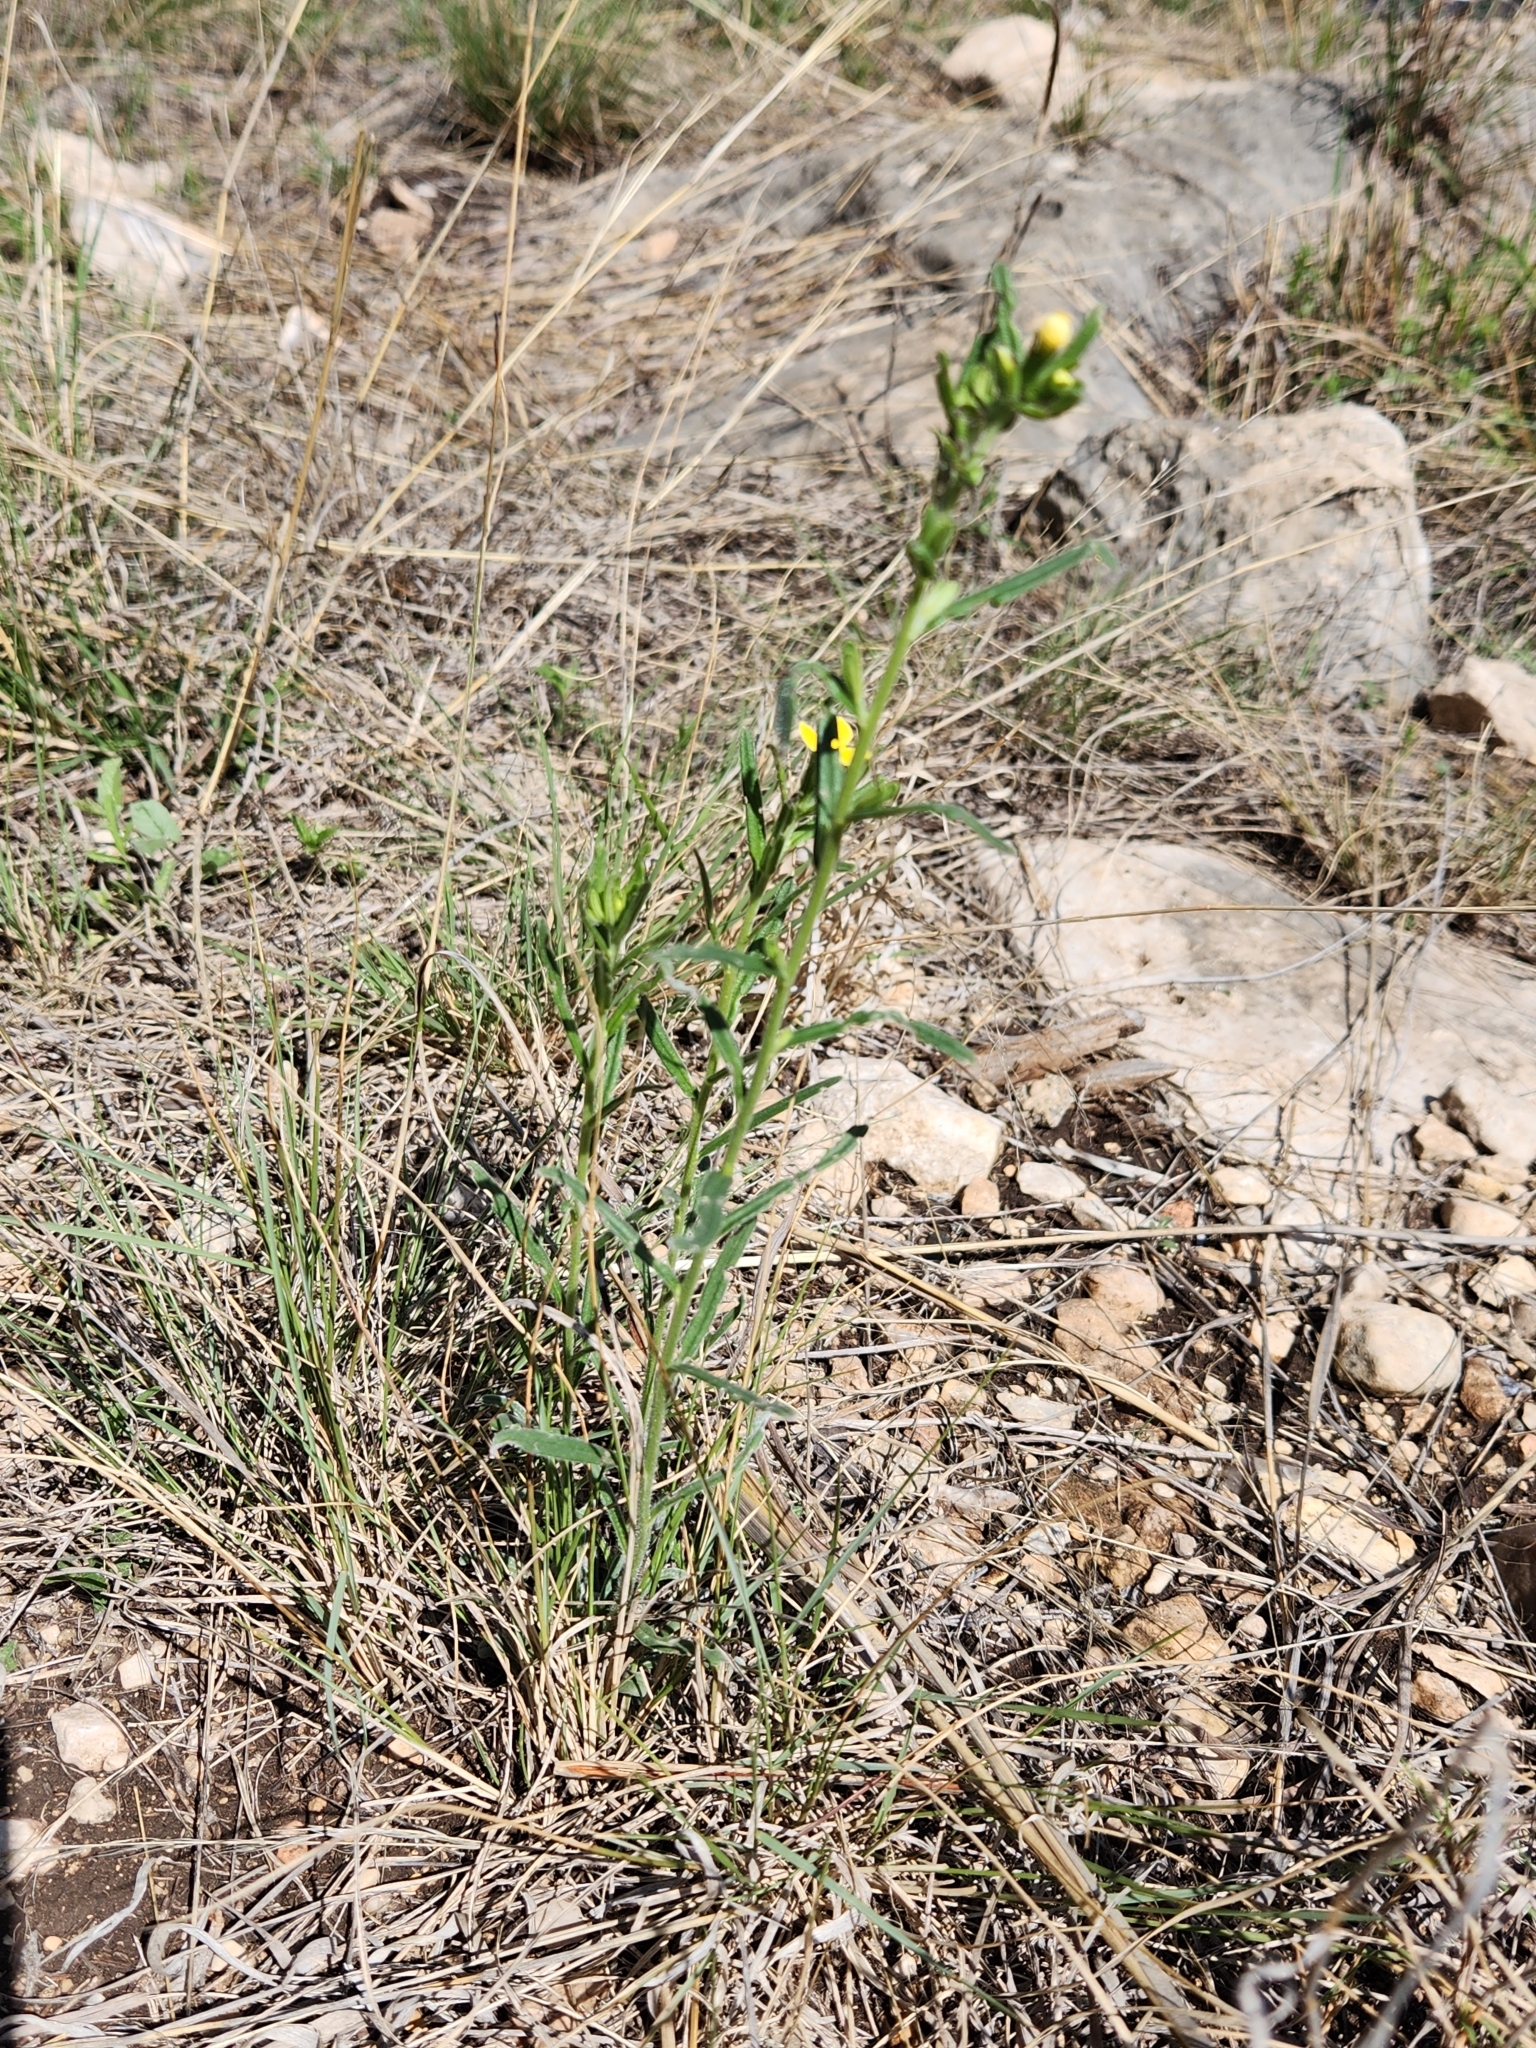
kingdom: Plantae
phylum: Tracheophyta
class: Magnoliopsida
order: Boraginales
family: Boraginaceae
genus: Lithospermum
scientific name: Lithospermum mirabile
